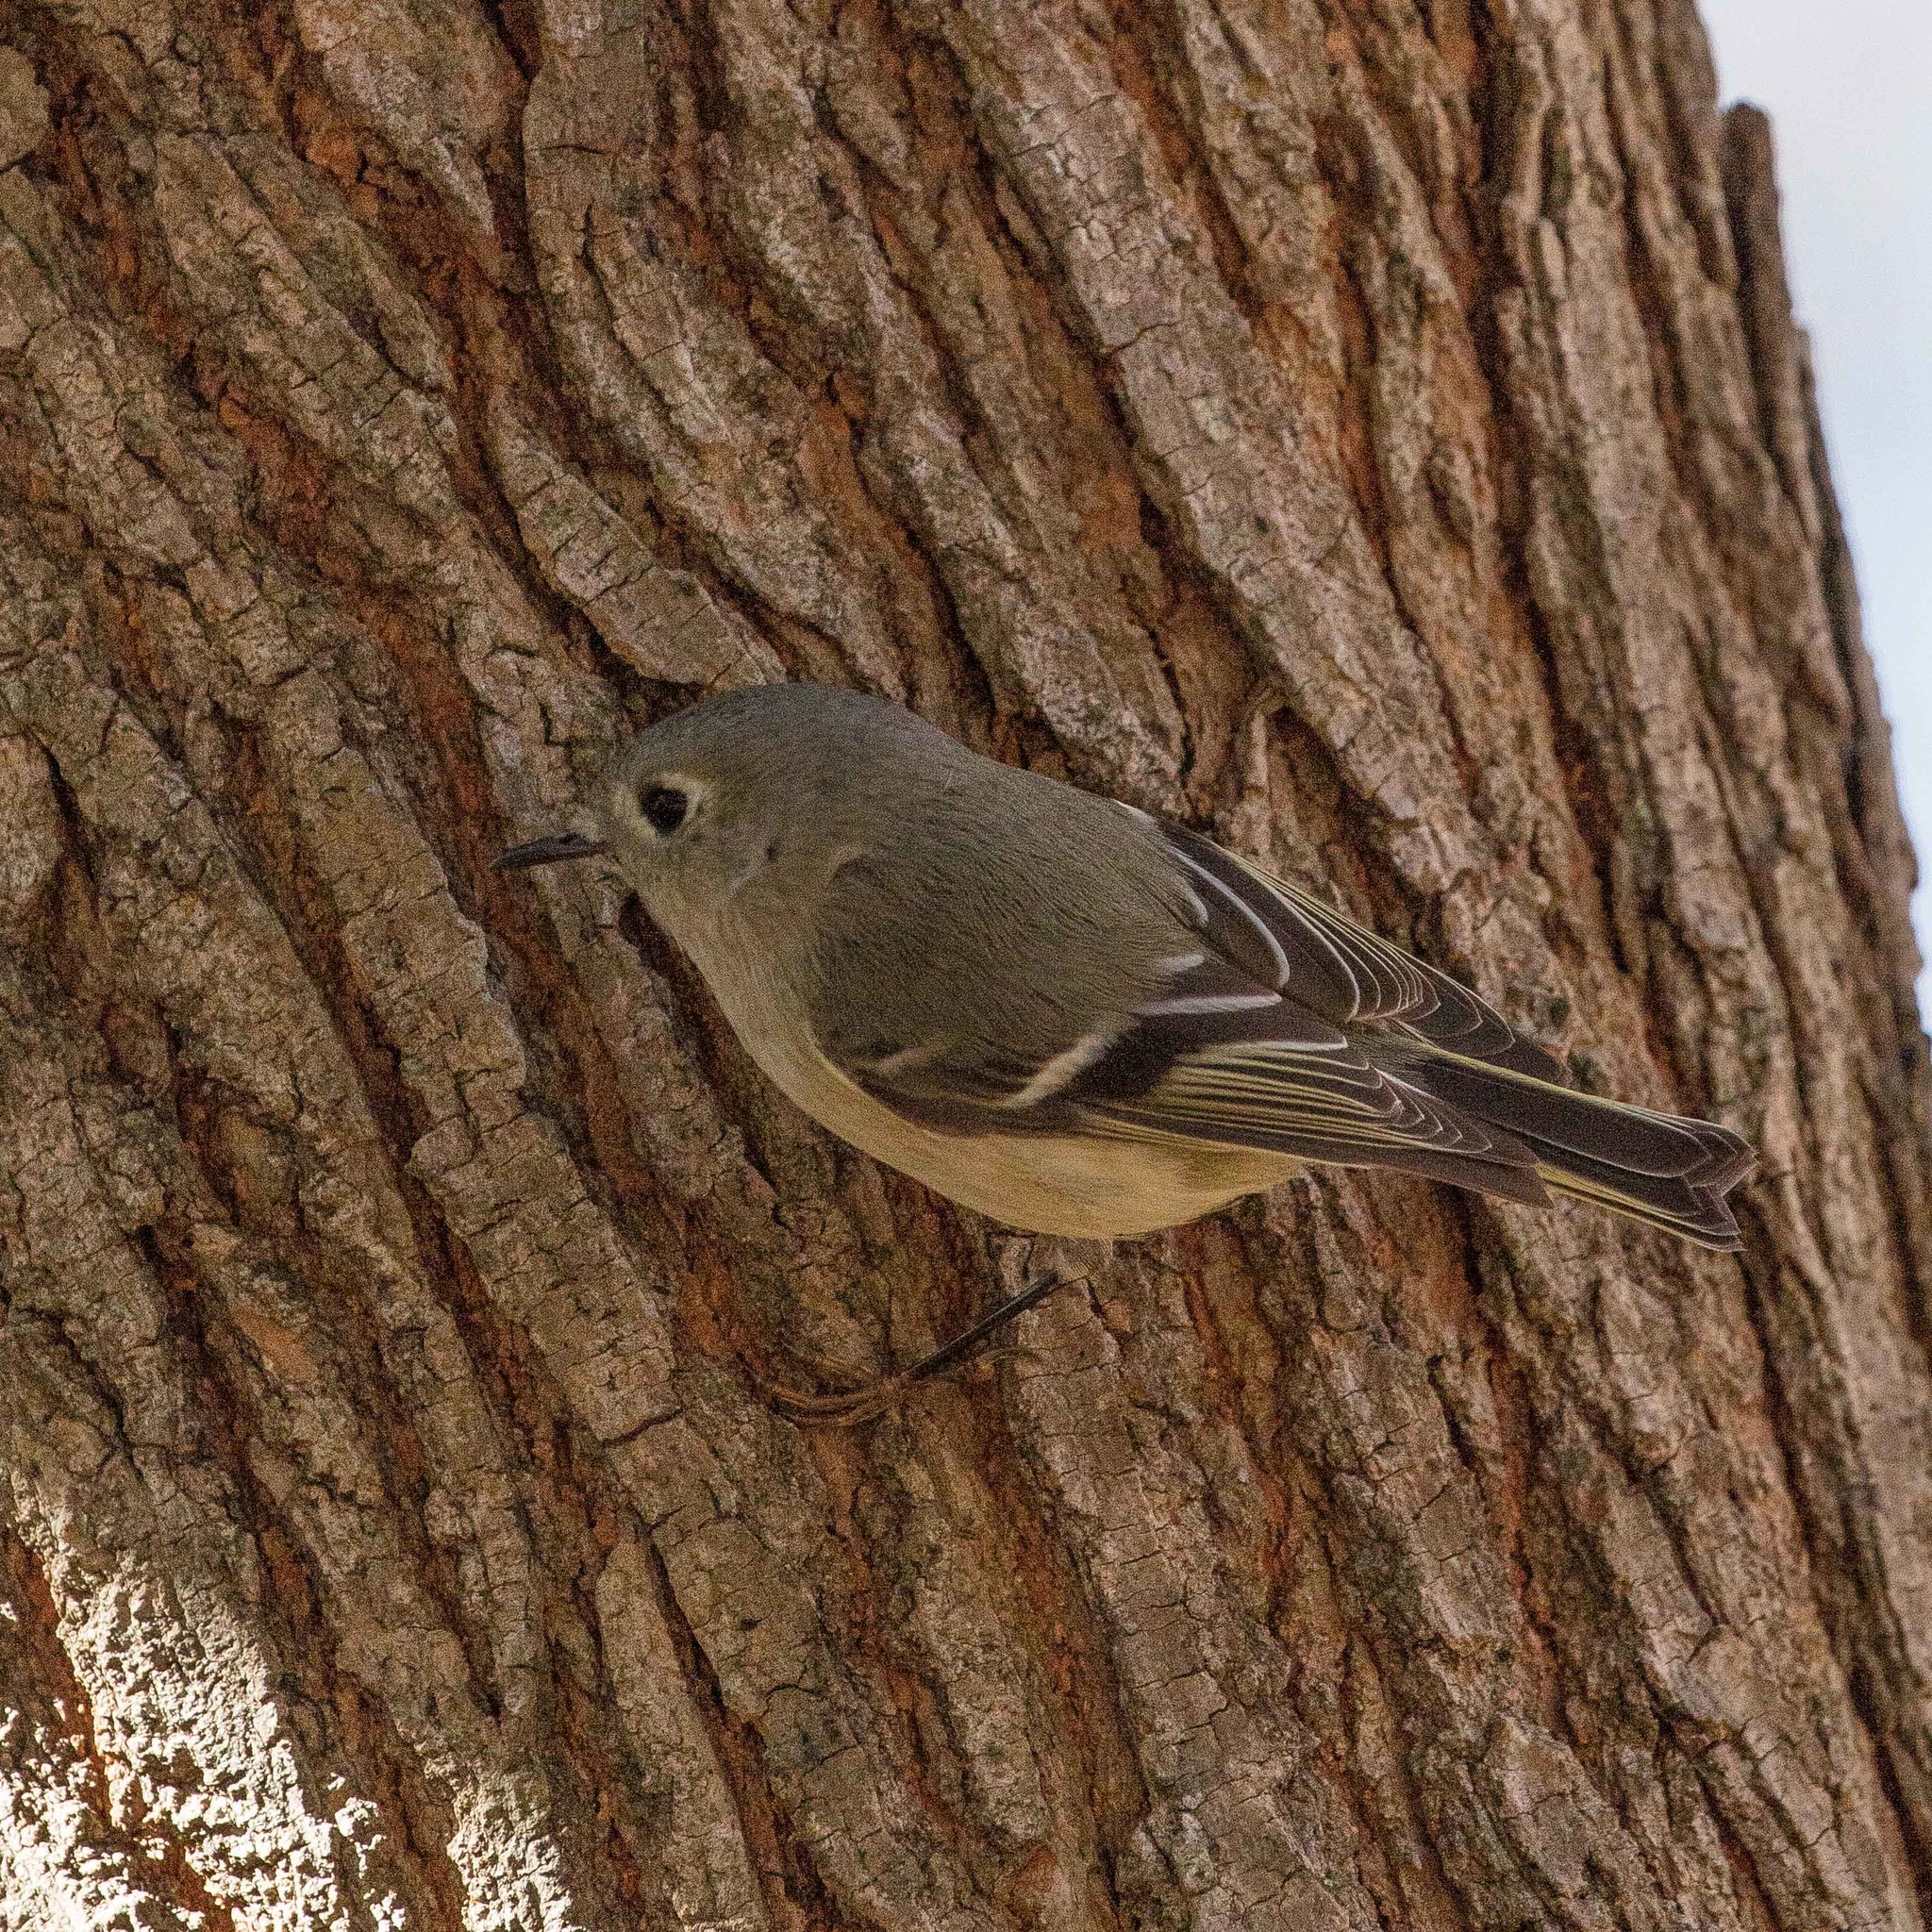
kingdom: Animalia
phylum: Chordata
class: Aves
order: Passeriformes
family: Regulidae
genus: Regulus
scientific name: Regulus calendula
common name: Ruby-crowned kinglet
